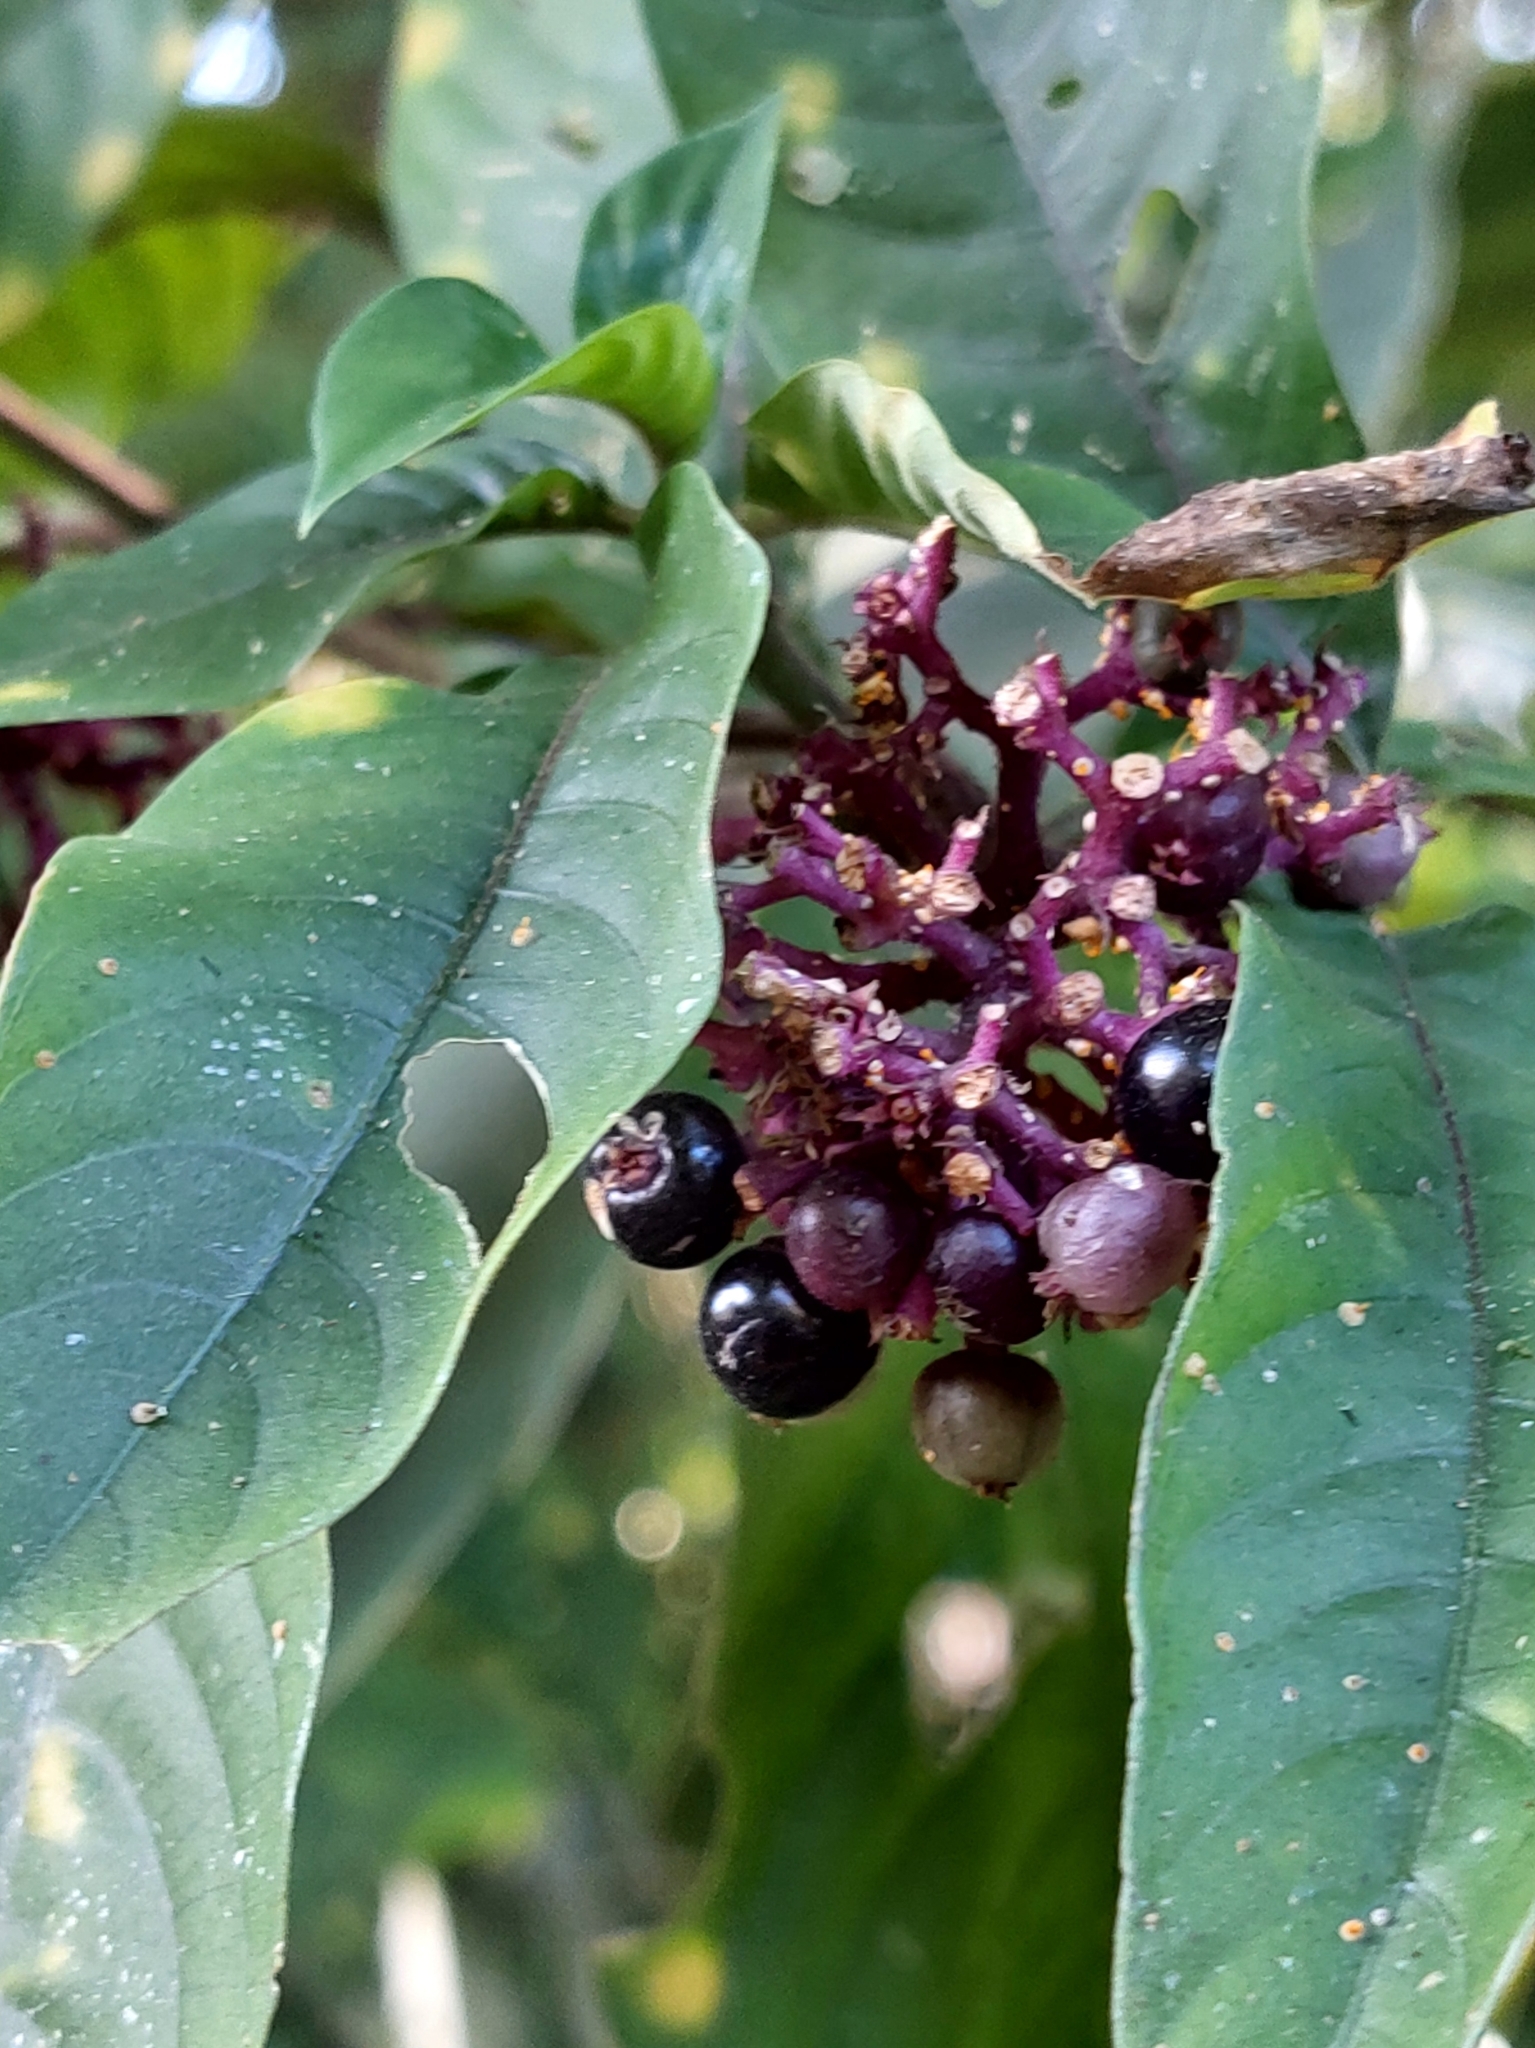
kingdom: Plantae
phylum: Tracheophyta
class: Magnoliopsida
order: Gentianales
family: Rubiaceae
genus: Palicourea
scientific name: Palicourea hebeclada
